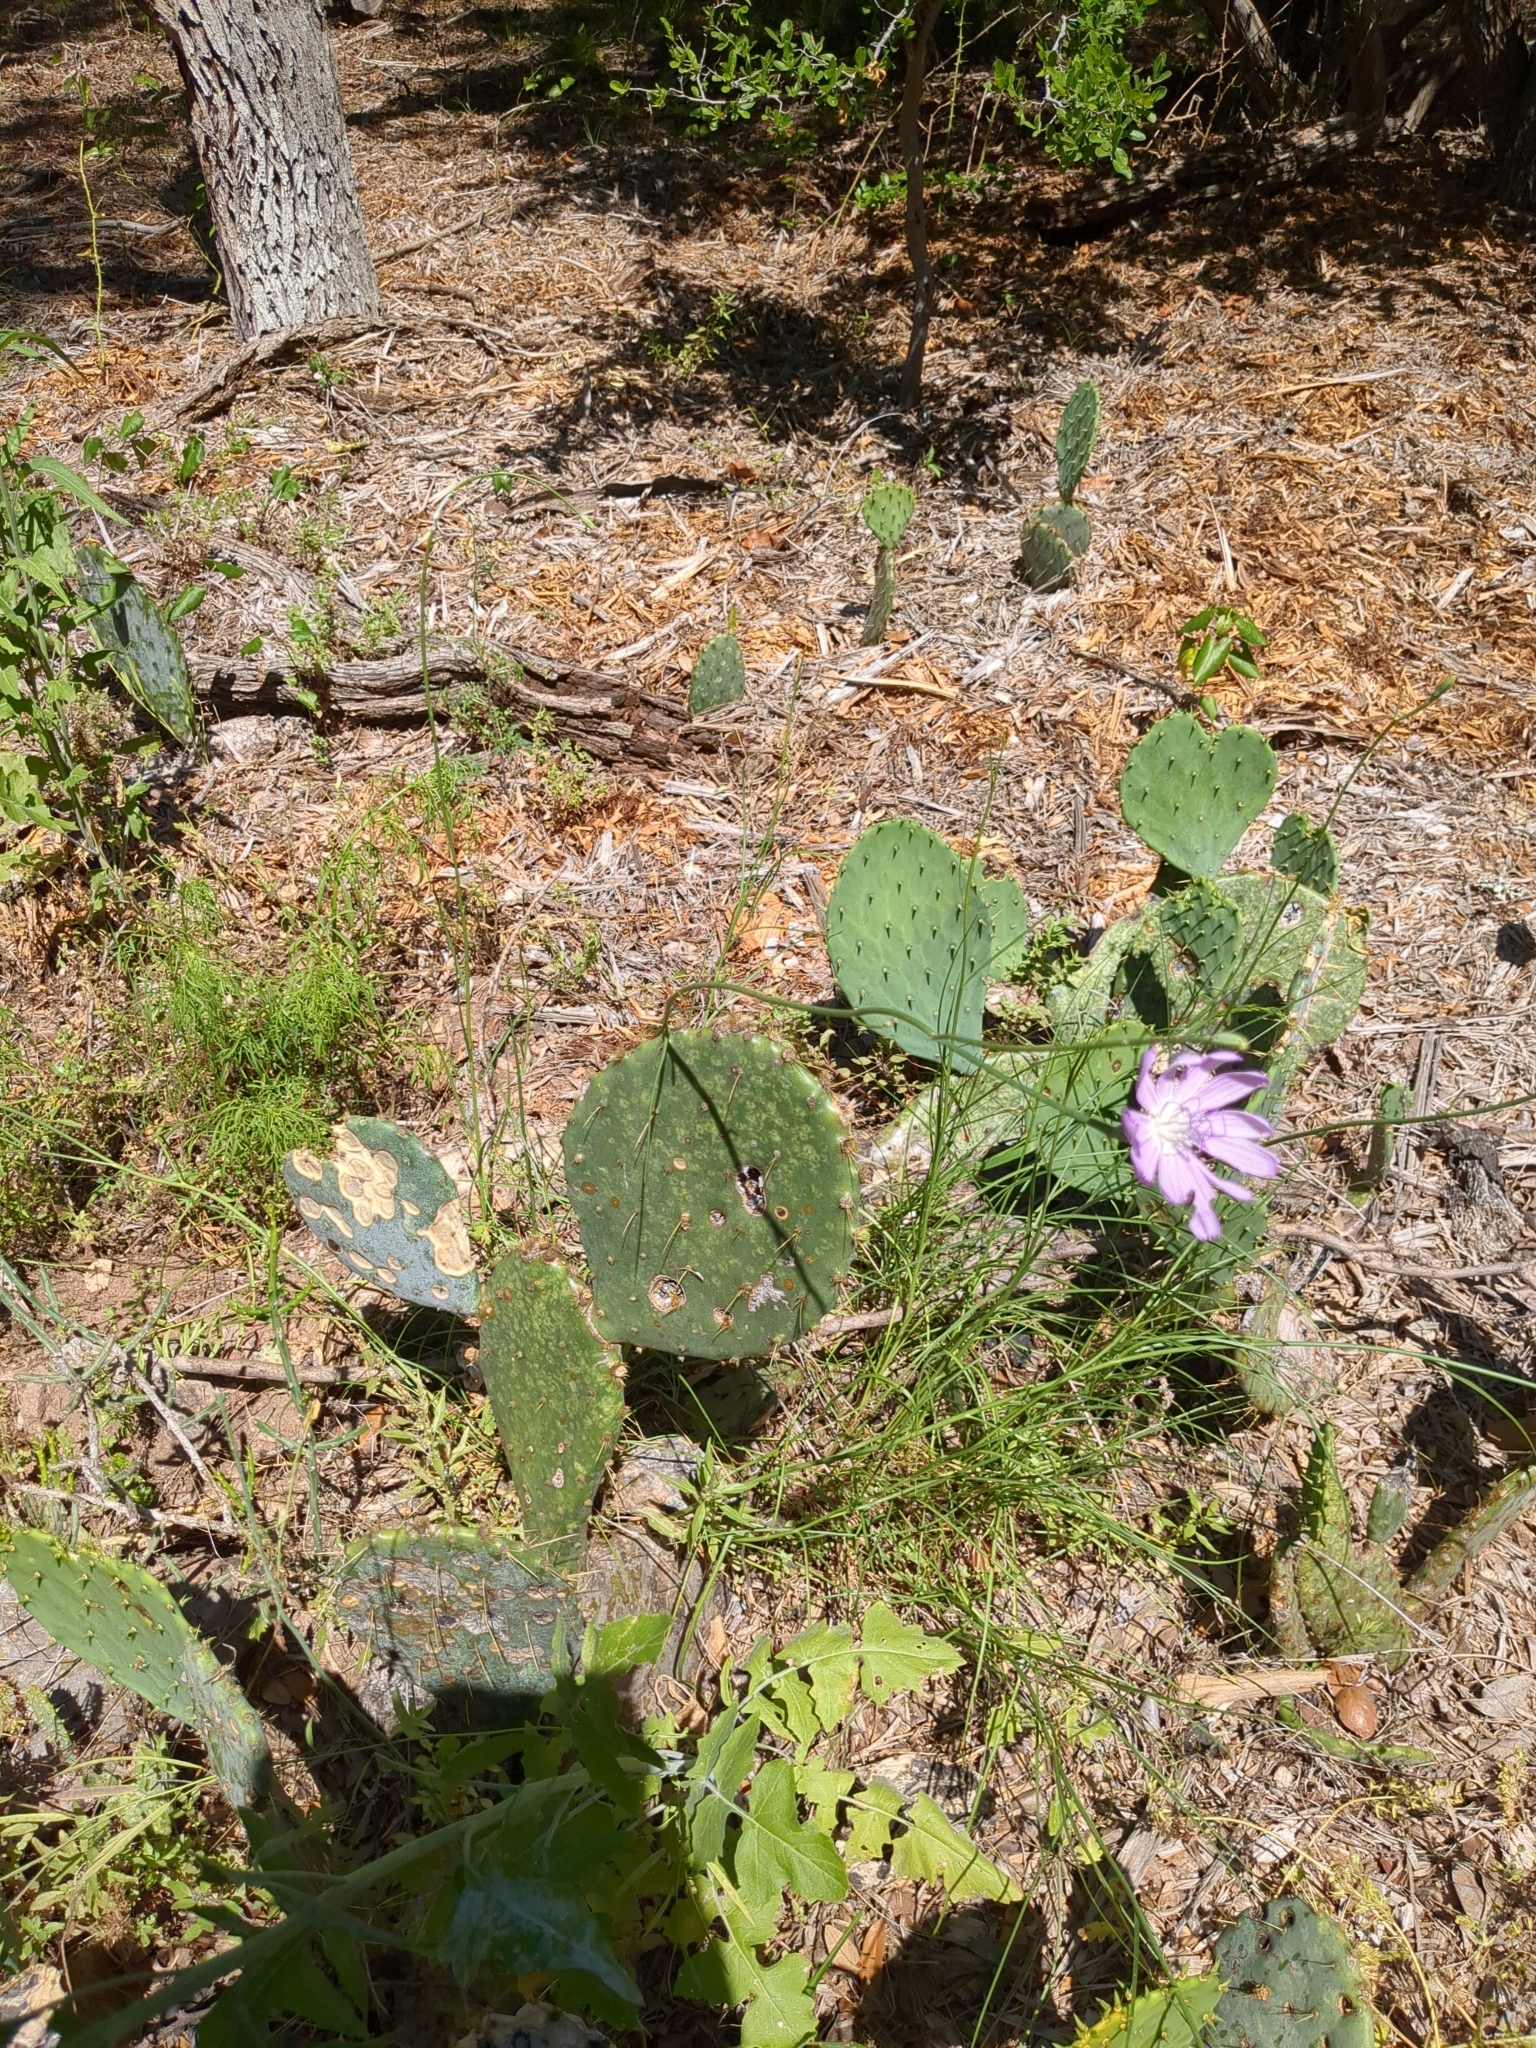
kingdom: Plantae
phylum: Tracheophyta
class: Magnoliopsida
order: Asterales
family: Asteraceae
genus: Lygodesmia
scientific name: Lygodesmia texana
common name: Texas skeleton-plant
